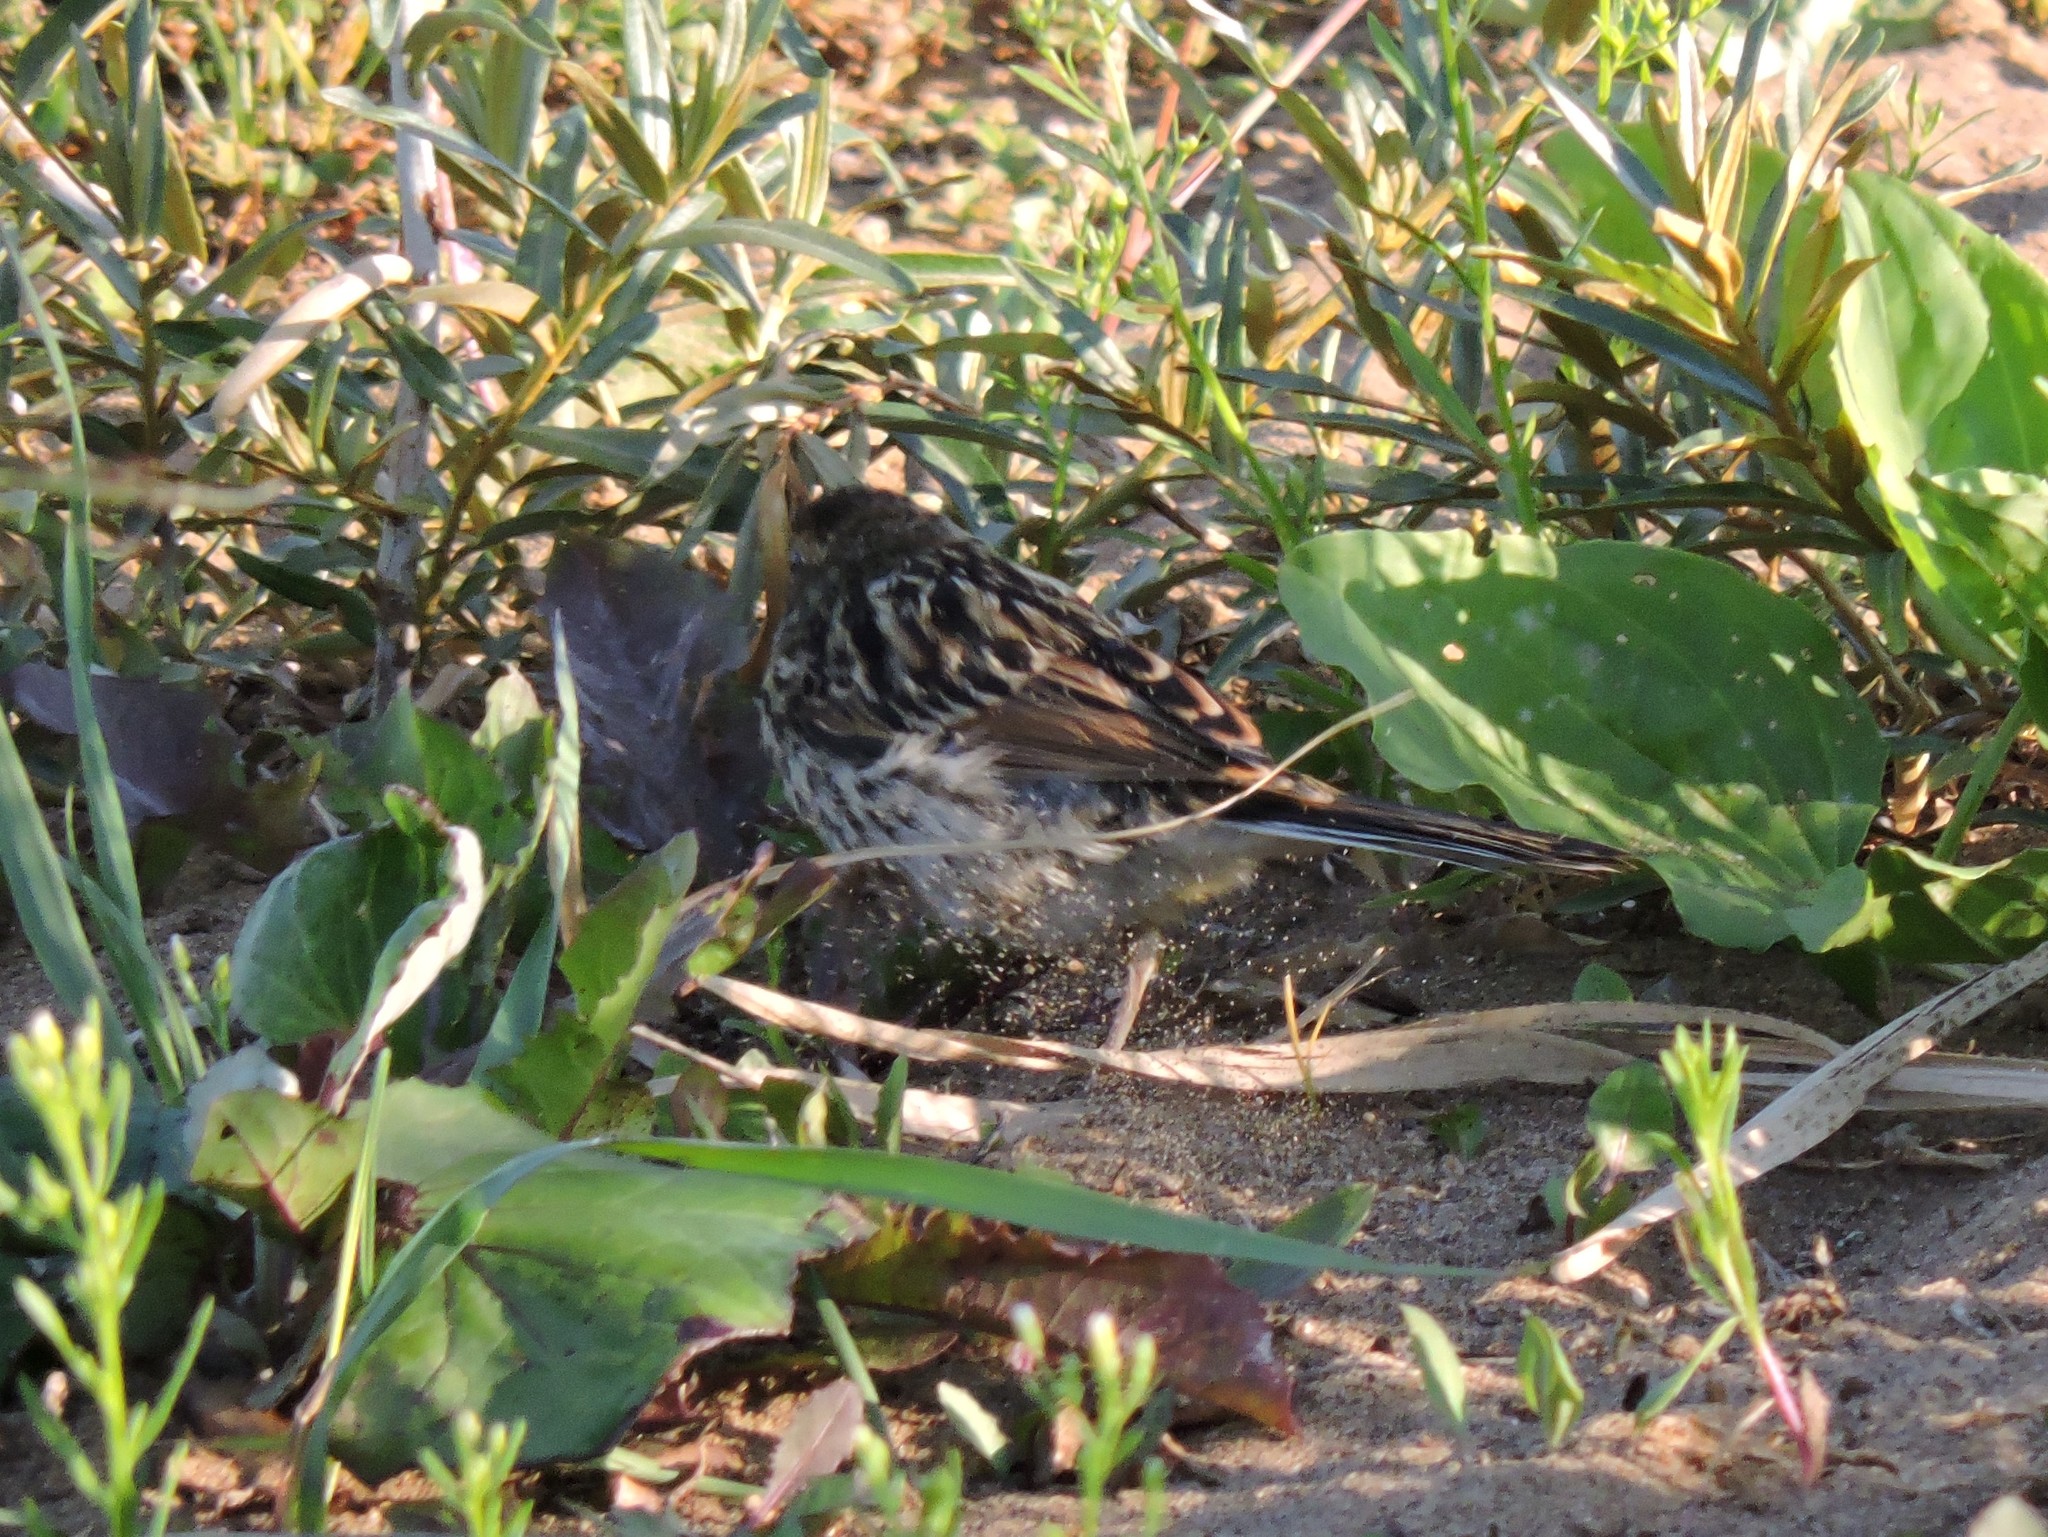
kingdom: Animalia
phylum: Chordata
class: Aves
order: Passeriformes
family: Emberizidae
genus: Emberiza
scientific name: Emberiza schoeniclus
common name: Reed bunting
